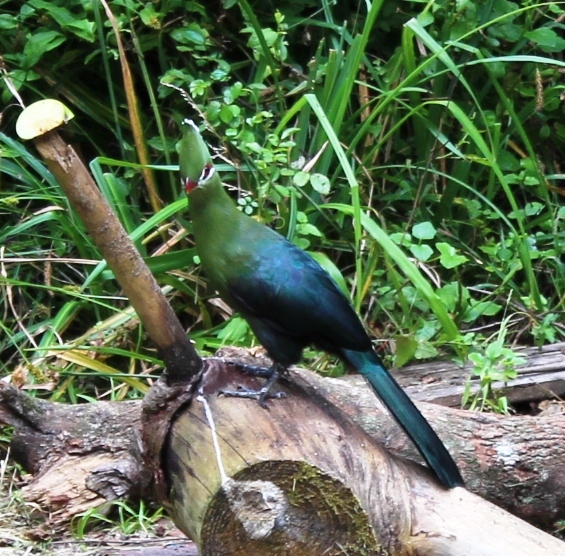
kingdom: Animalia
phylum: Chordata
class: Aves
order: Musophagiformes
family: Musophagidae
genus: Tauraco
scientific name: Tauraco corythaix
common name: Knysna turaco
